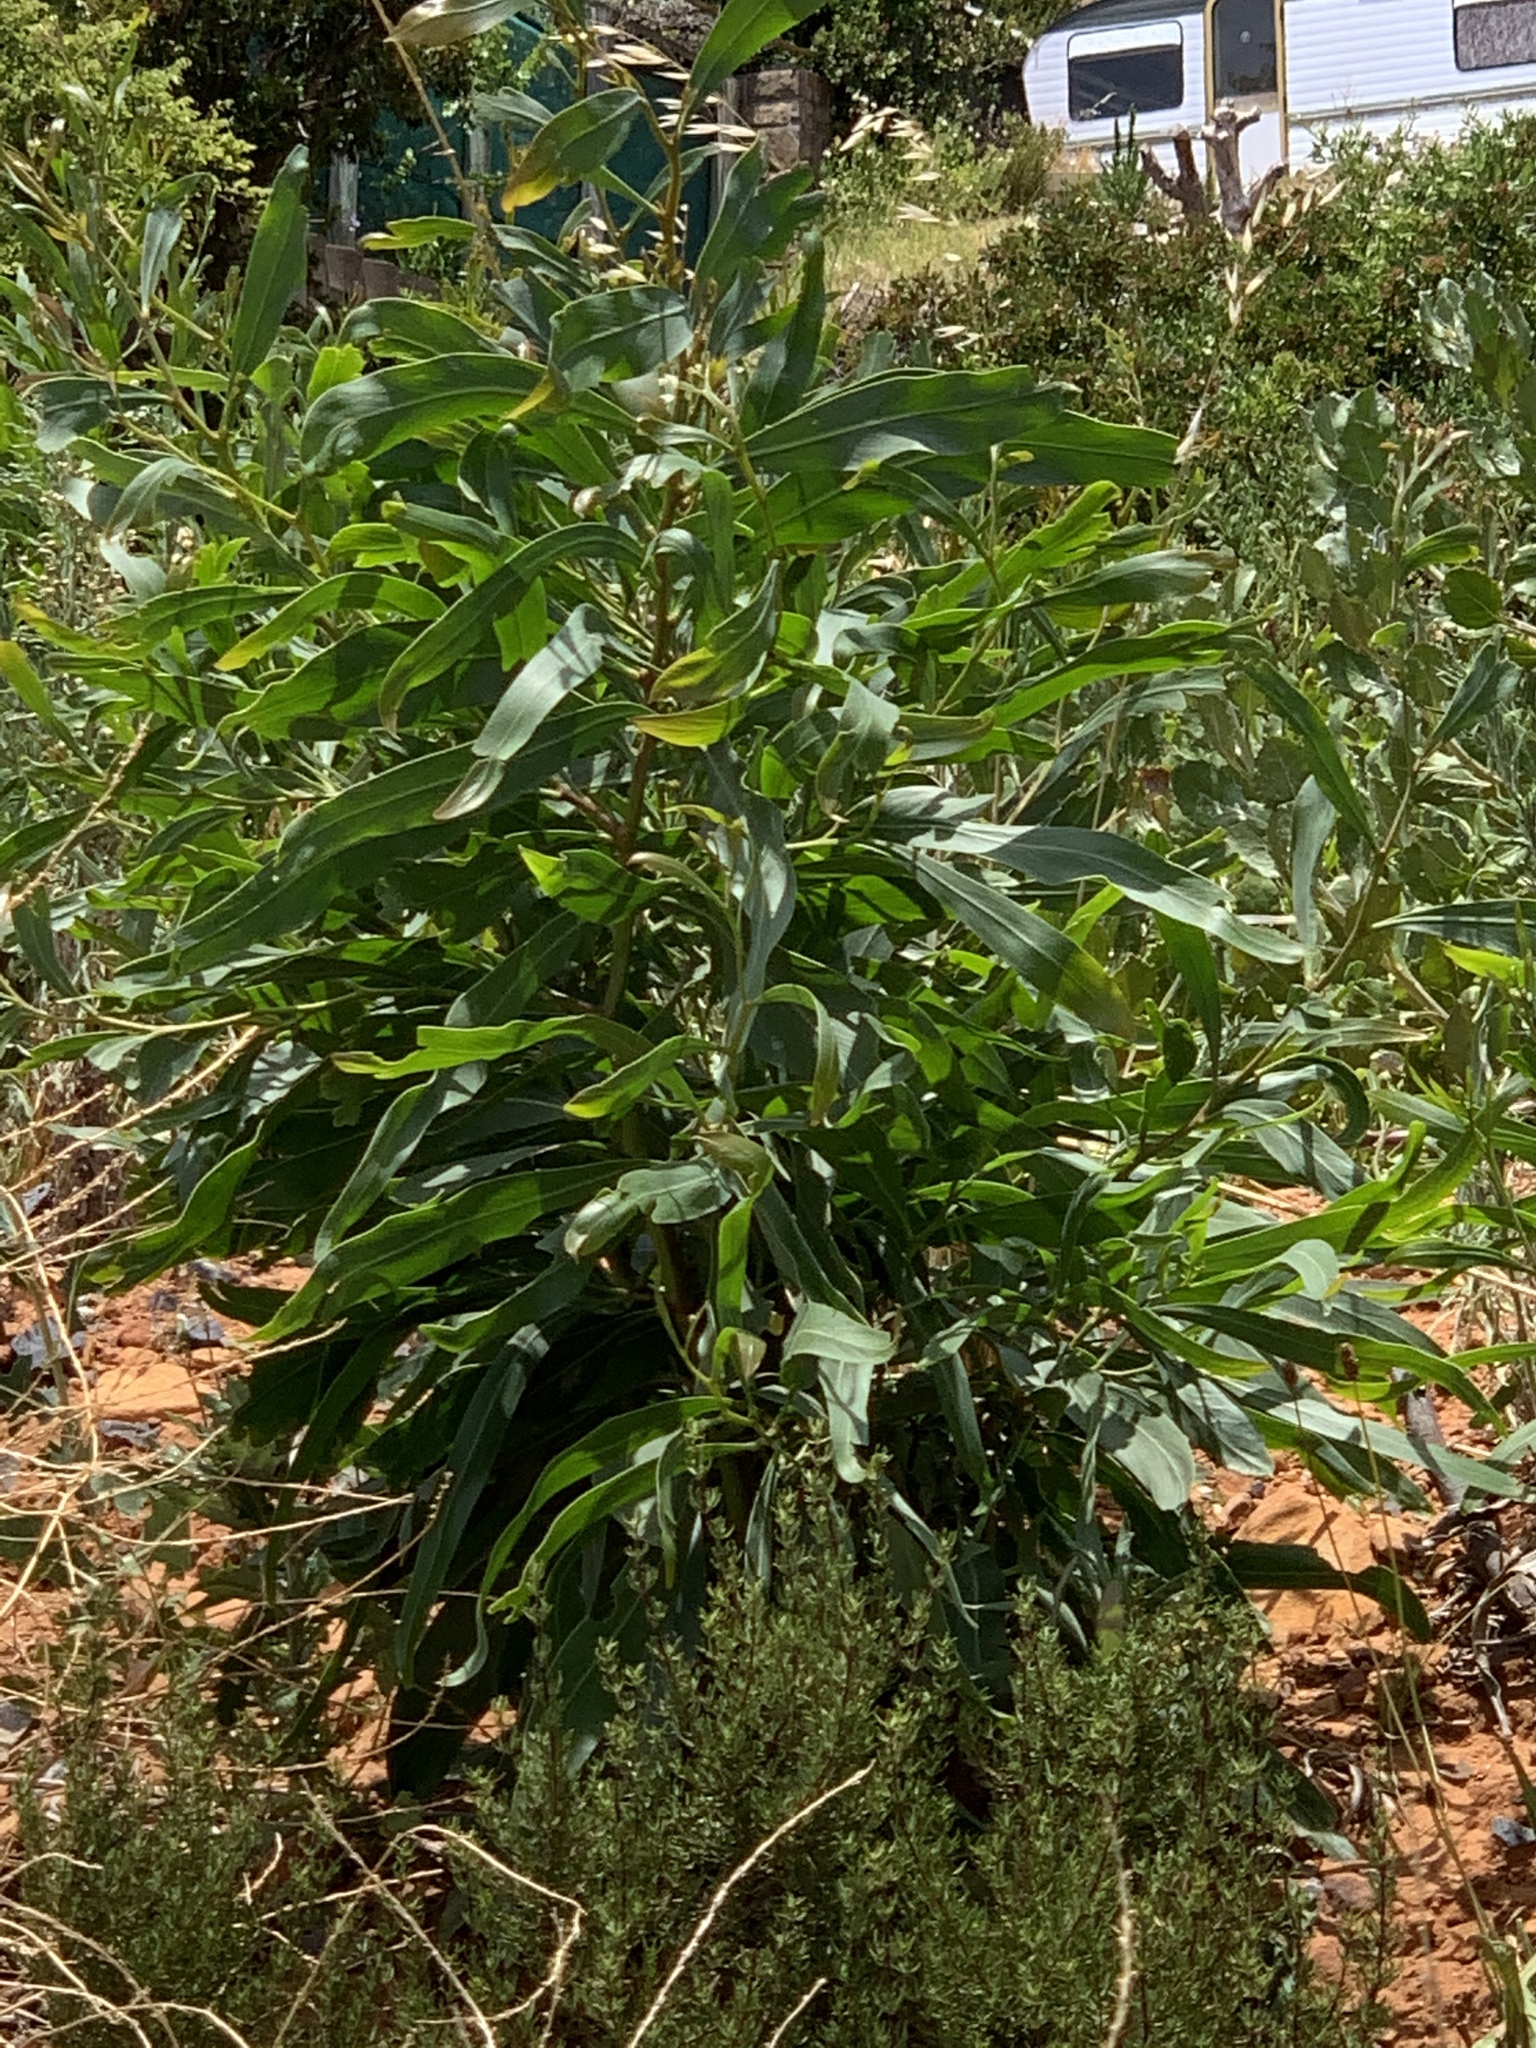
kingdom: Plantae
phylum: Tracheophyta
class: Magnoliopsida
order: Fabales
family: Fabaceae
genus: Acacia
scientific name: Acacia saligna
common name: Orange wattle
